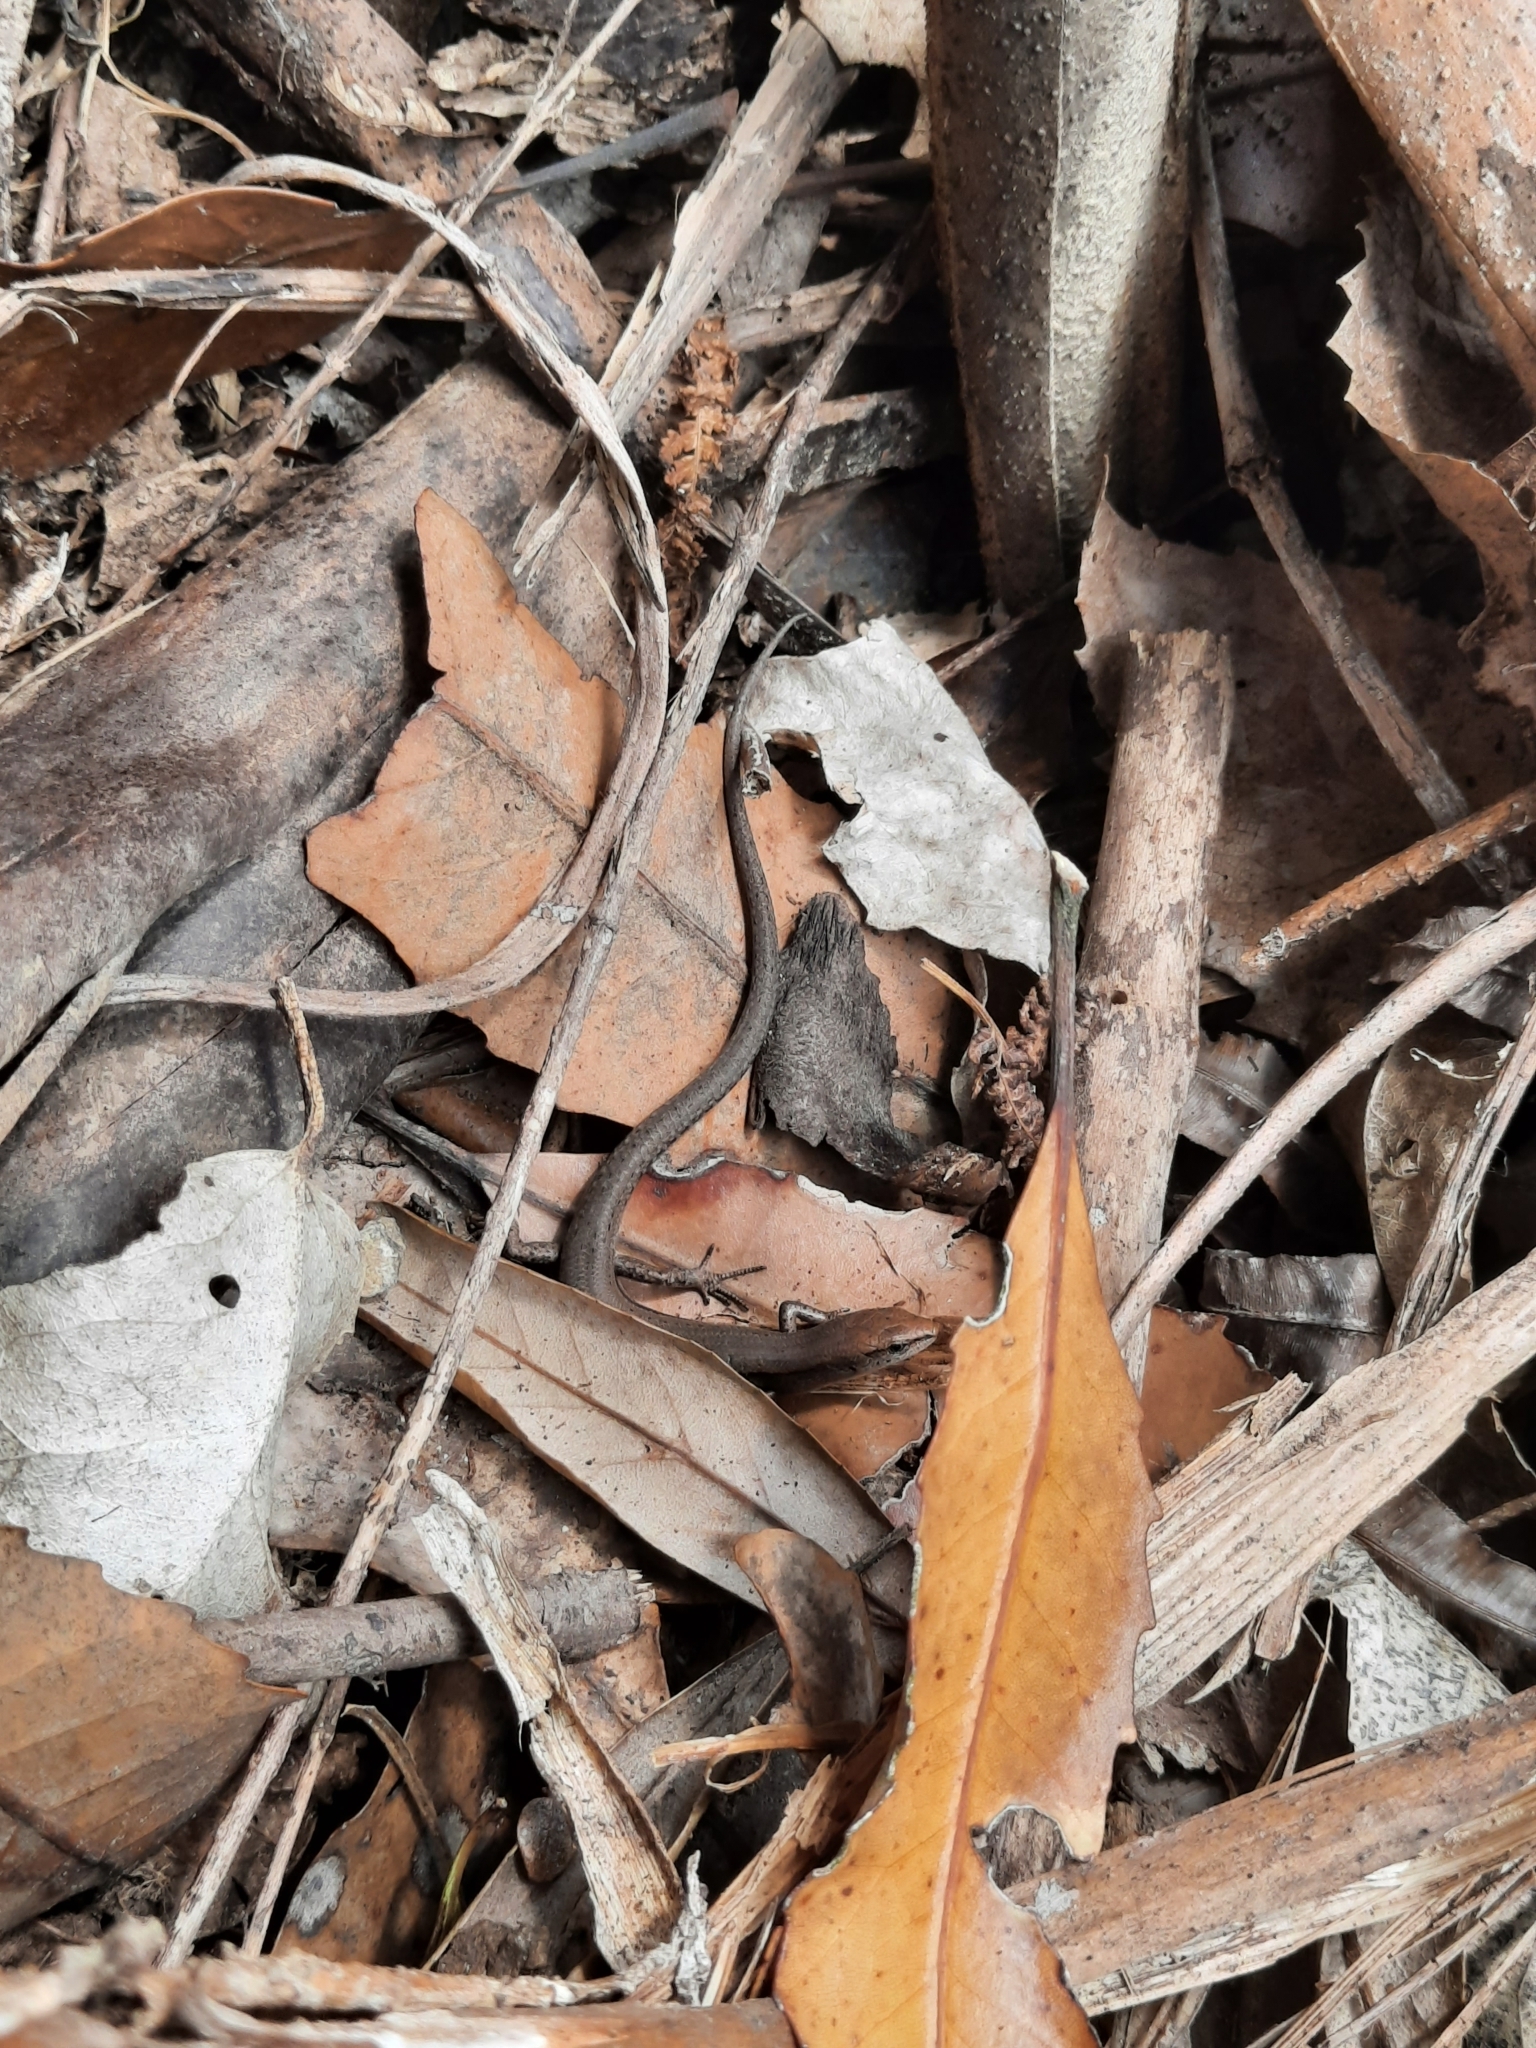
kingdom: Animalia
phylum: Chordata
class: Squamata
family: Scincidae
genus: Lampropholis
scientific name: Lampropholis delicata
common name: Plague skink
